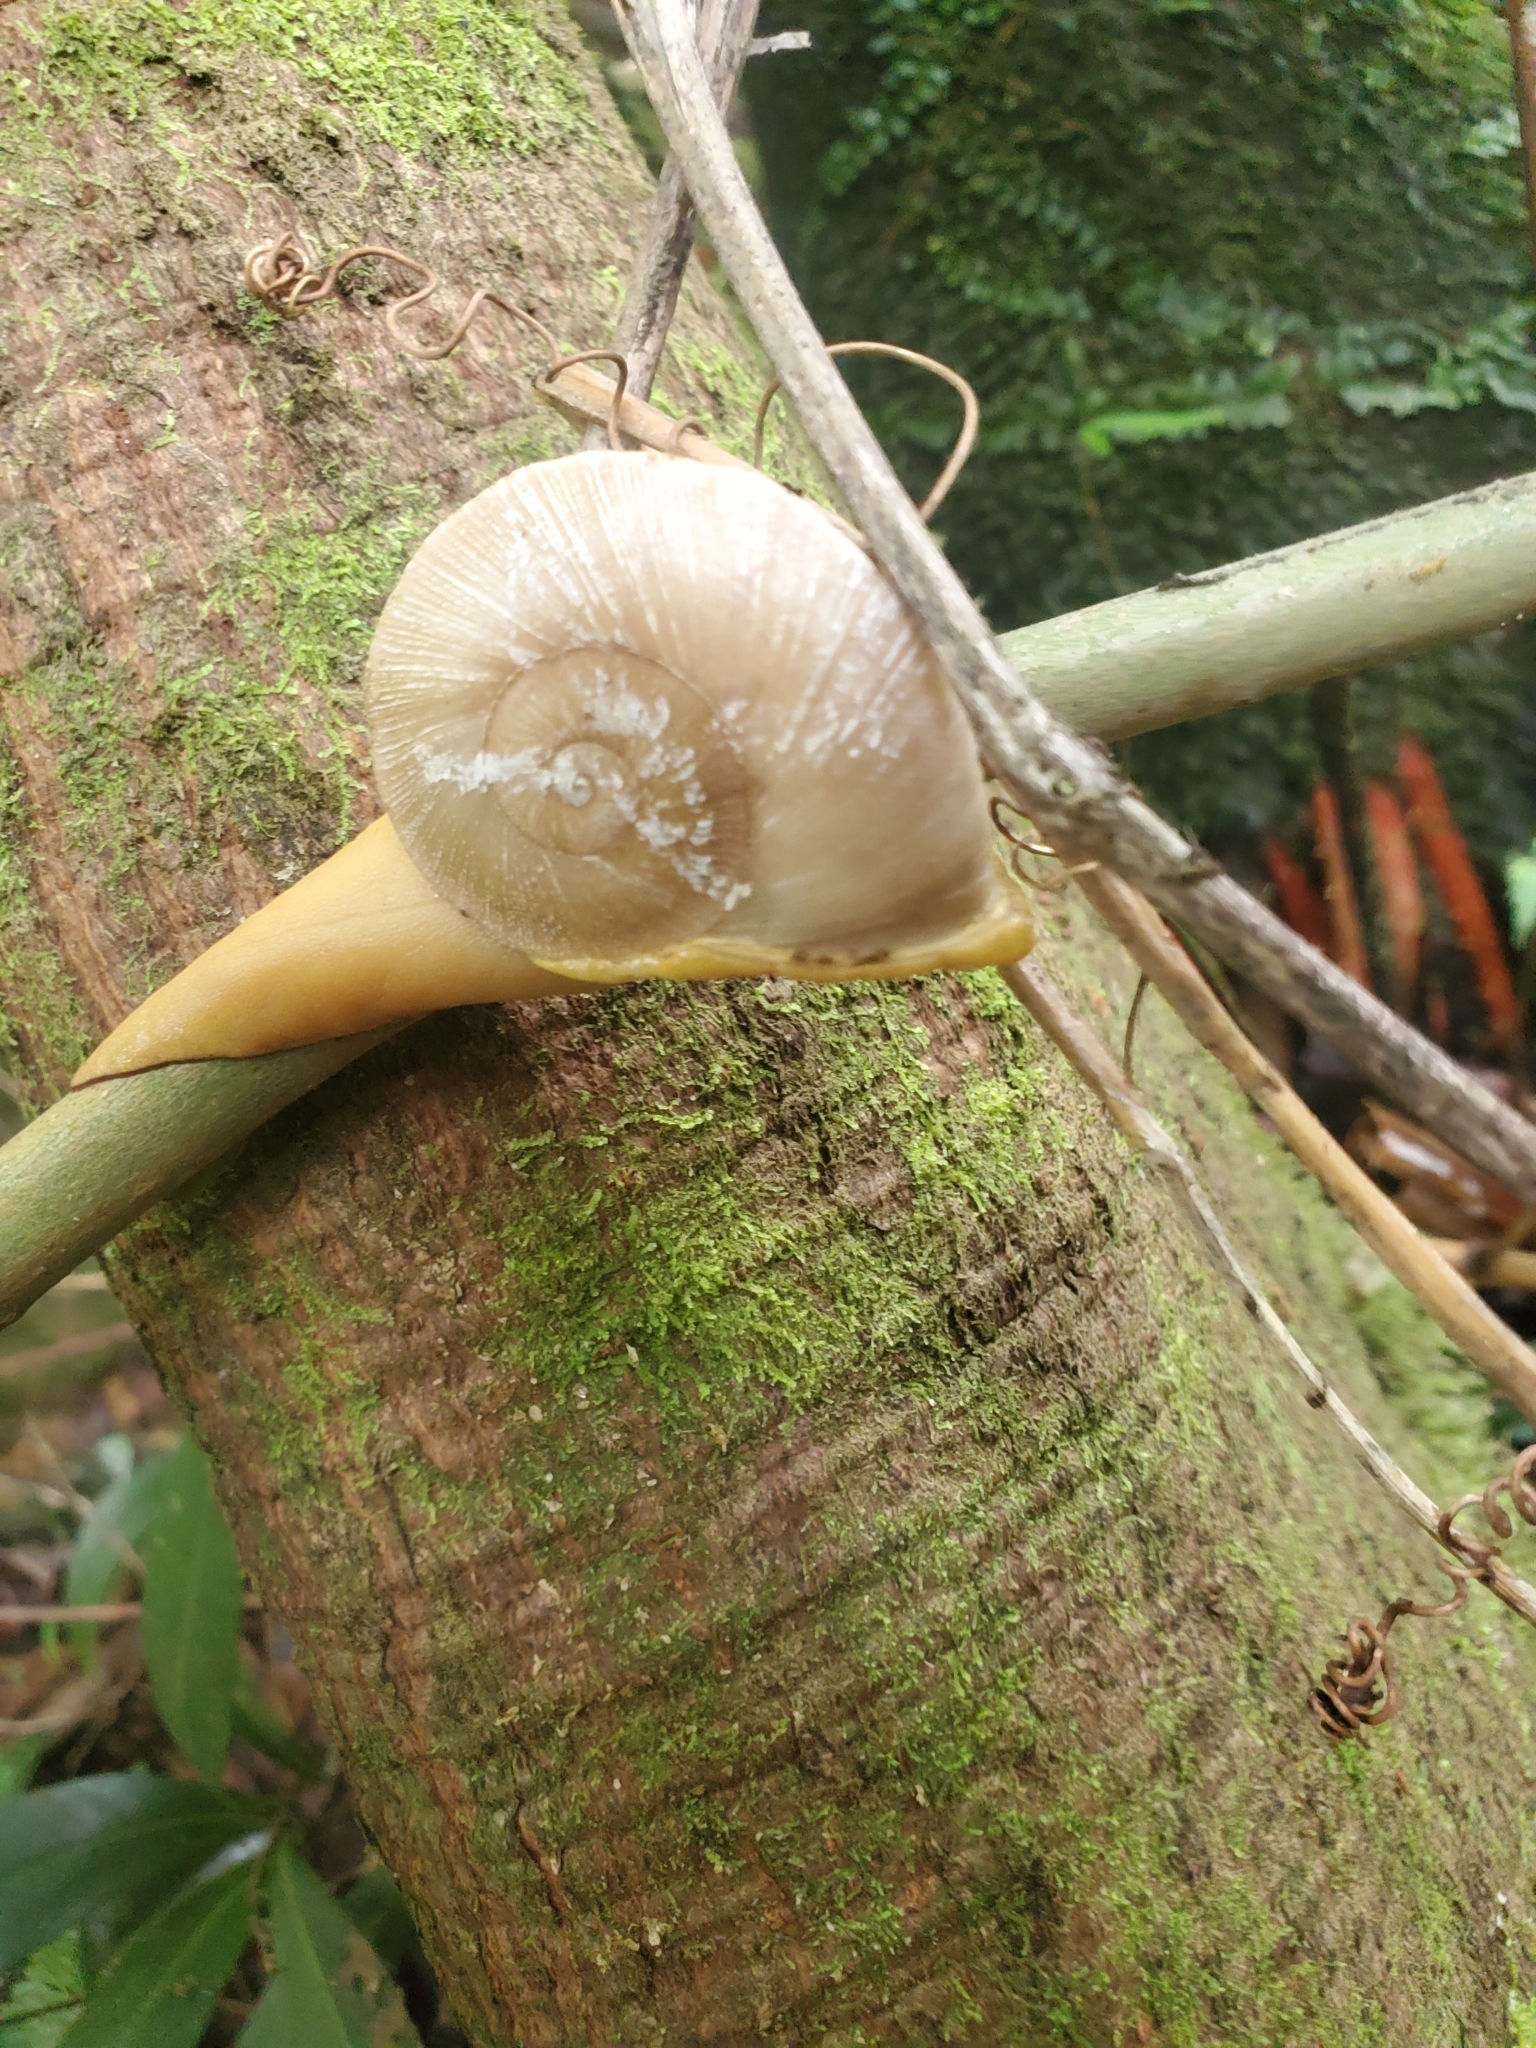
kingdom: Animalia
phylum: Mollusca
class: Gastropoda
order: Stylommatophora
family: Sagdidae
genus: Parthena
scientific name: Parthena acutangula
